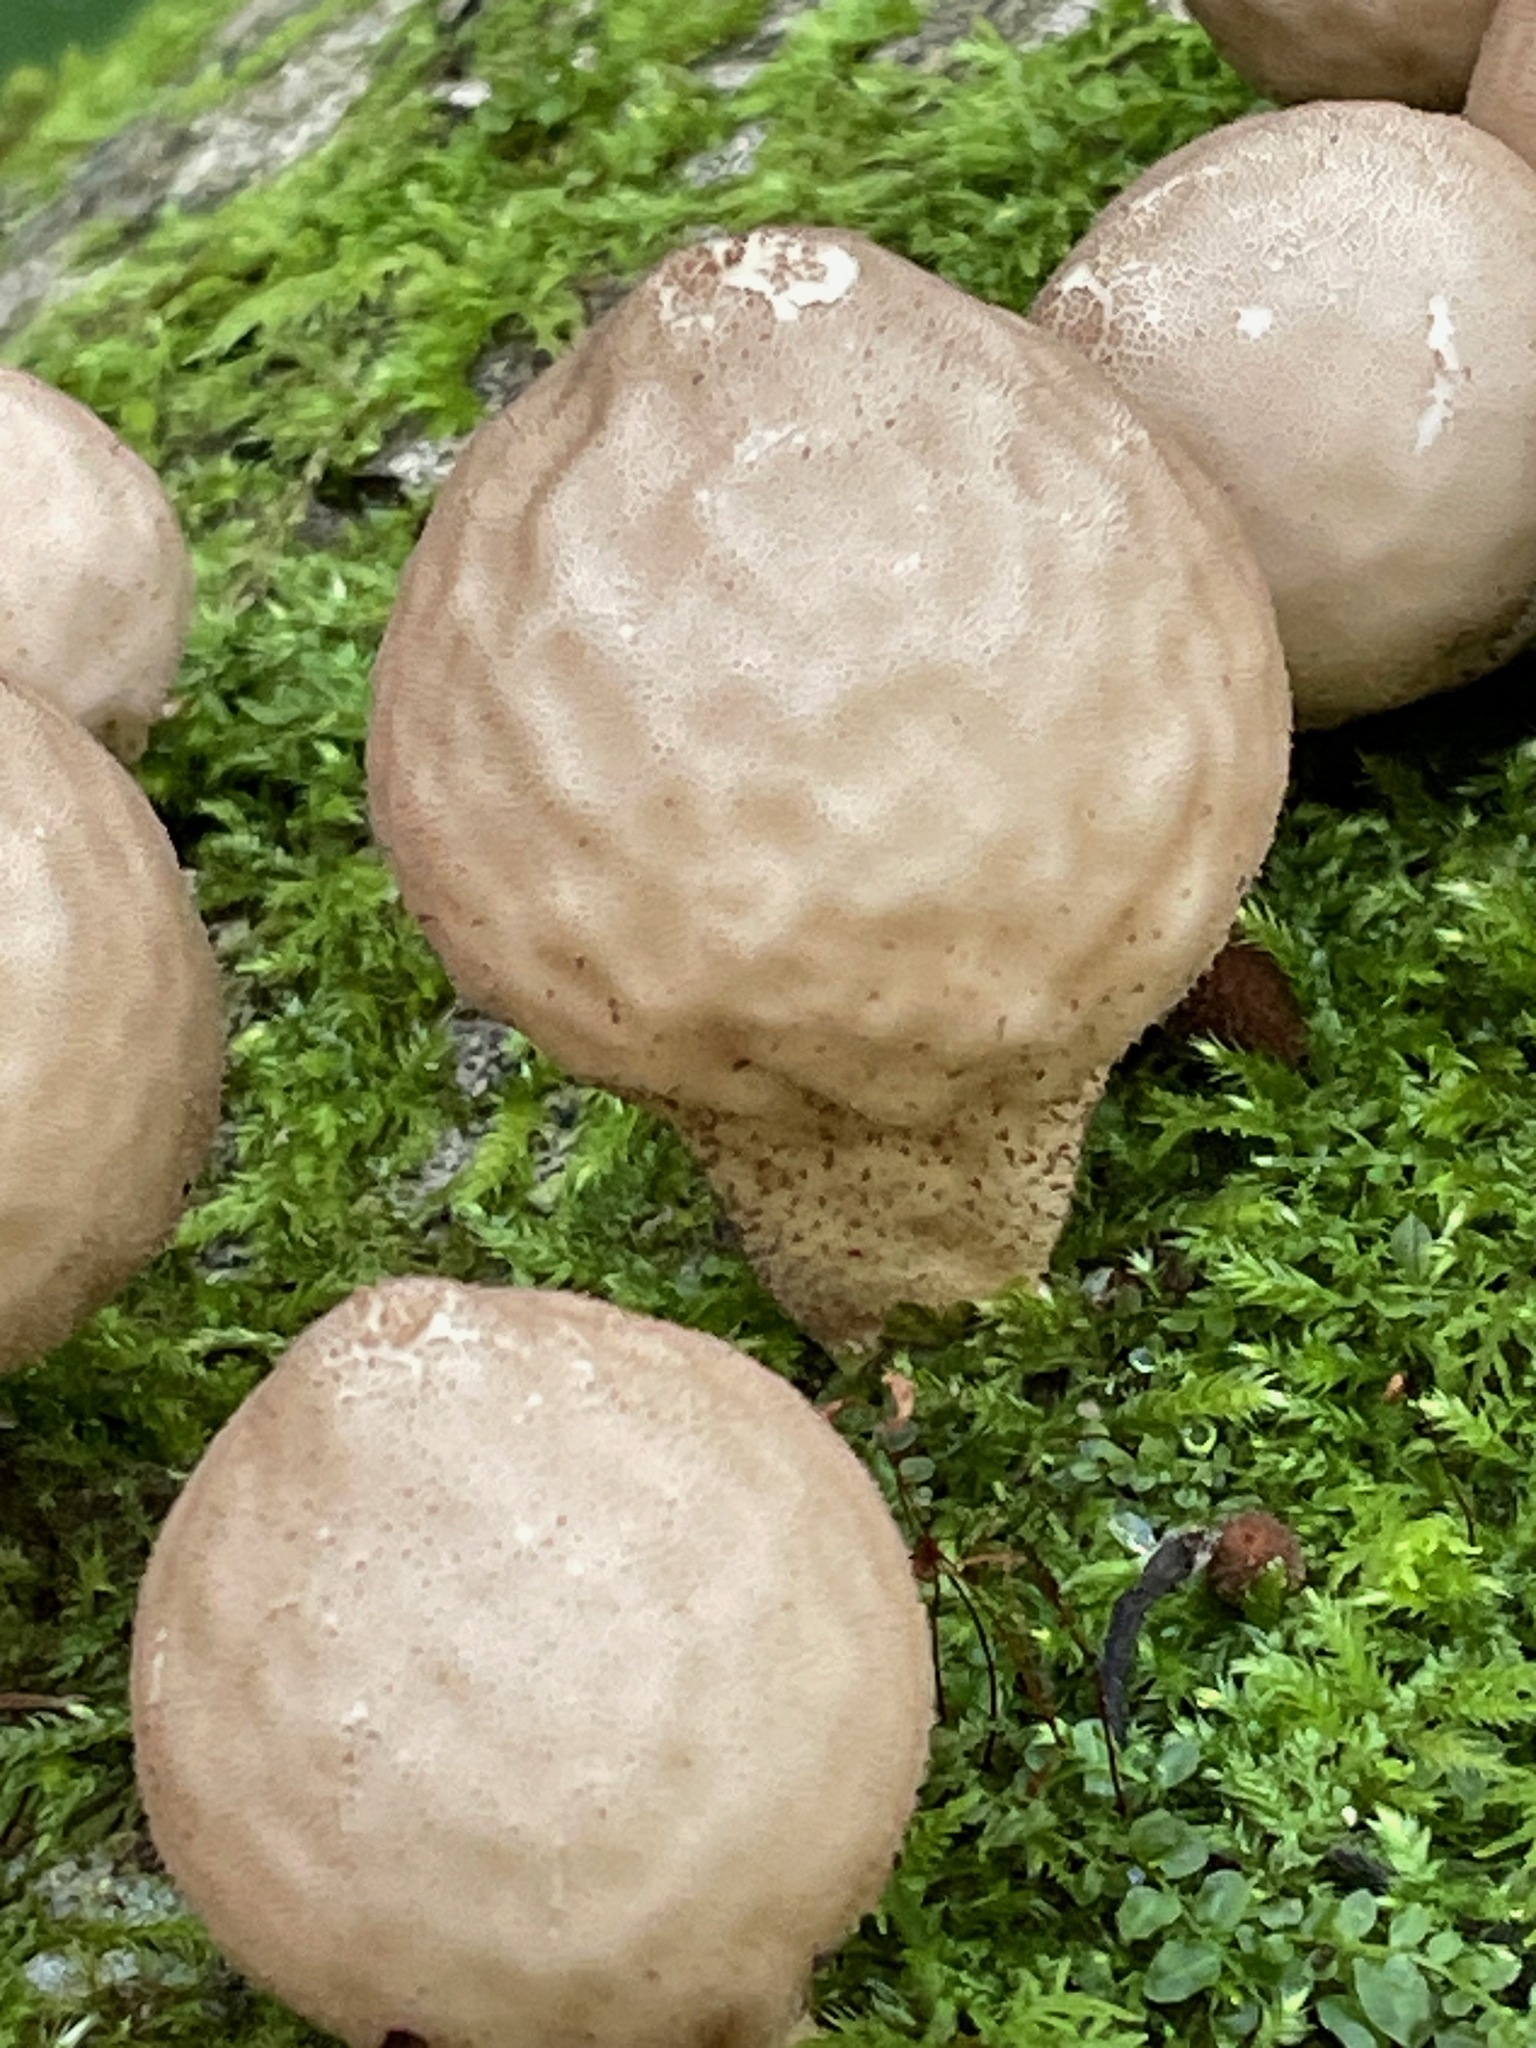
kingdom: Fungi
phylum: Basidiomycota
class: Agaricomycetes
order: Agaricales
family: Lycoperdaceae
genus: Apioperdon
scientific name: Apioperdon pyriforme
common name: Pear-shaped puffball
